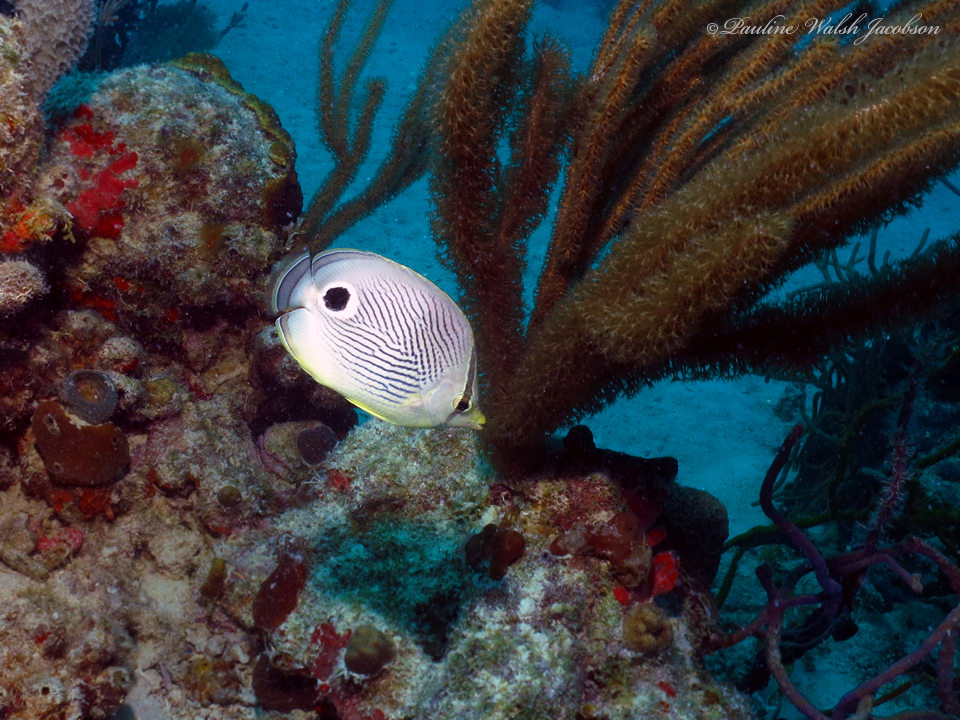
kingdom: Animalia
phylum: Chordata
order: Perciformes
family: Chaetodontidae
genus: Chaetodon
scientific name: Chaetodon capistratus
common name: Kete
